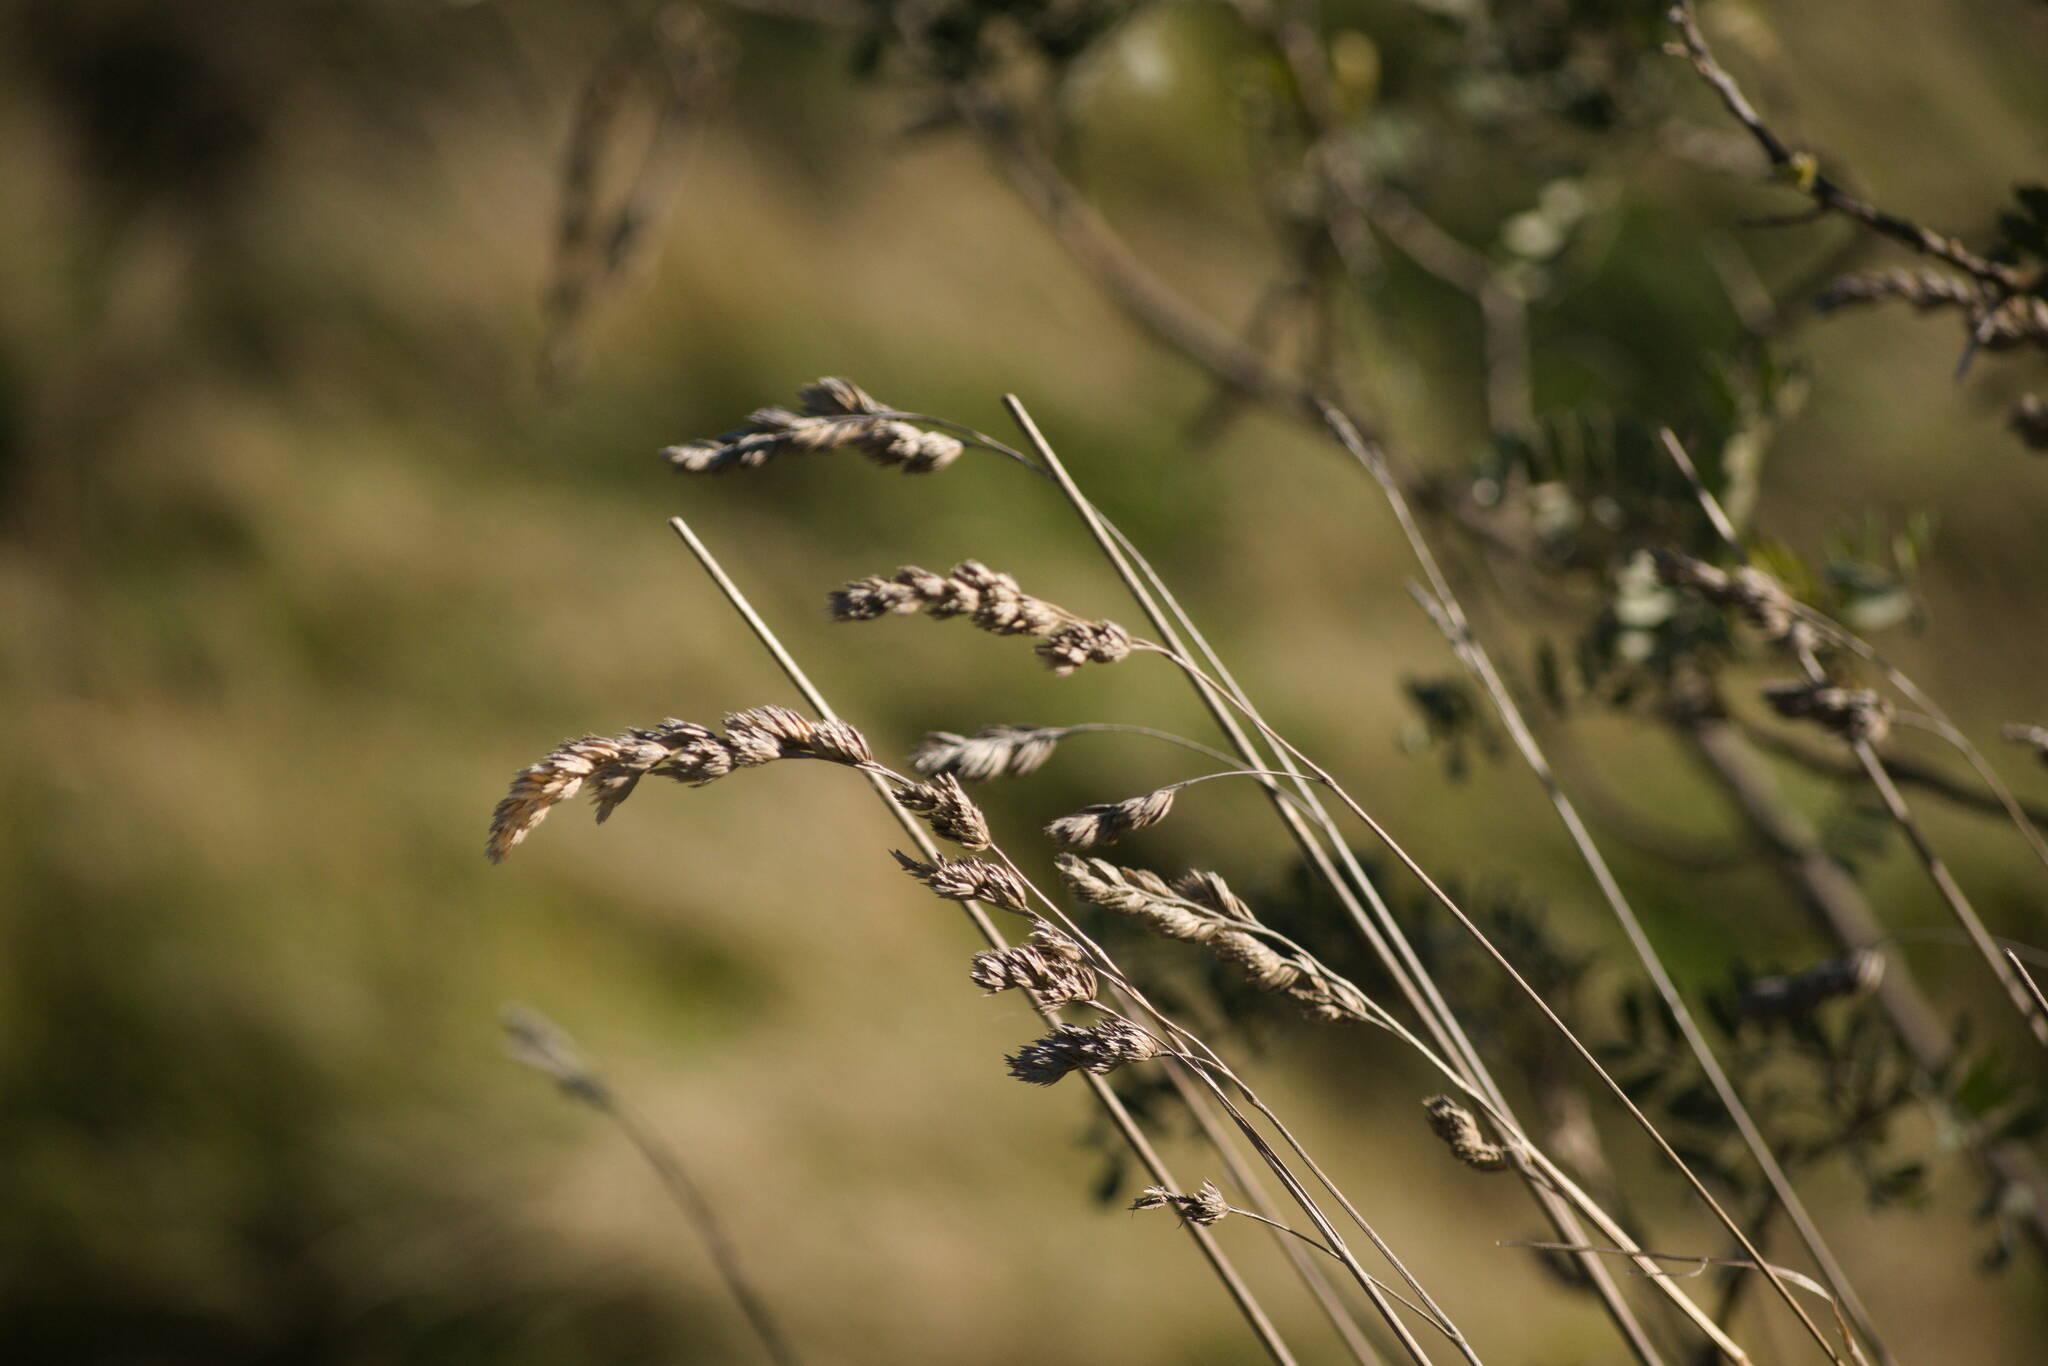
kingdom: Plantae
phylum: Tracheophyta
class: Liliopsida
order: Poales
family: Poaceae
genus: Dactylis
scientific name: Dactylis glomerata
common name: Orchardgrass
